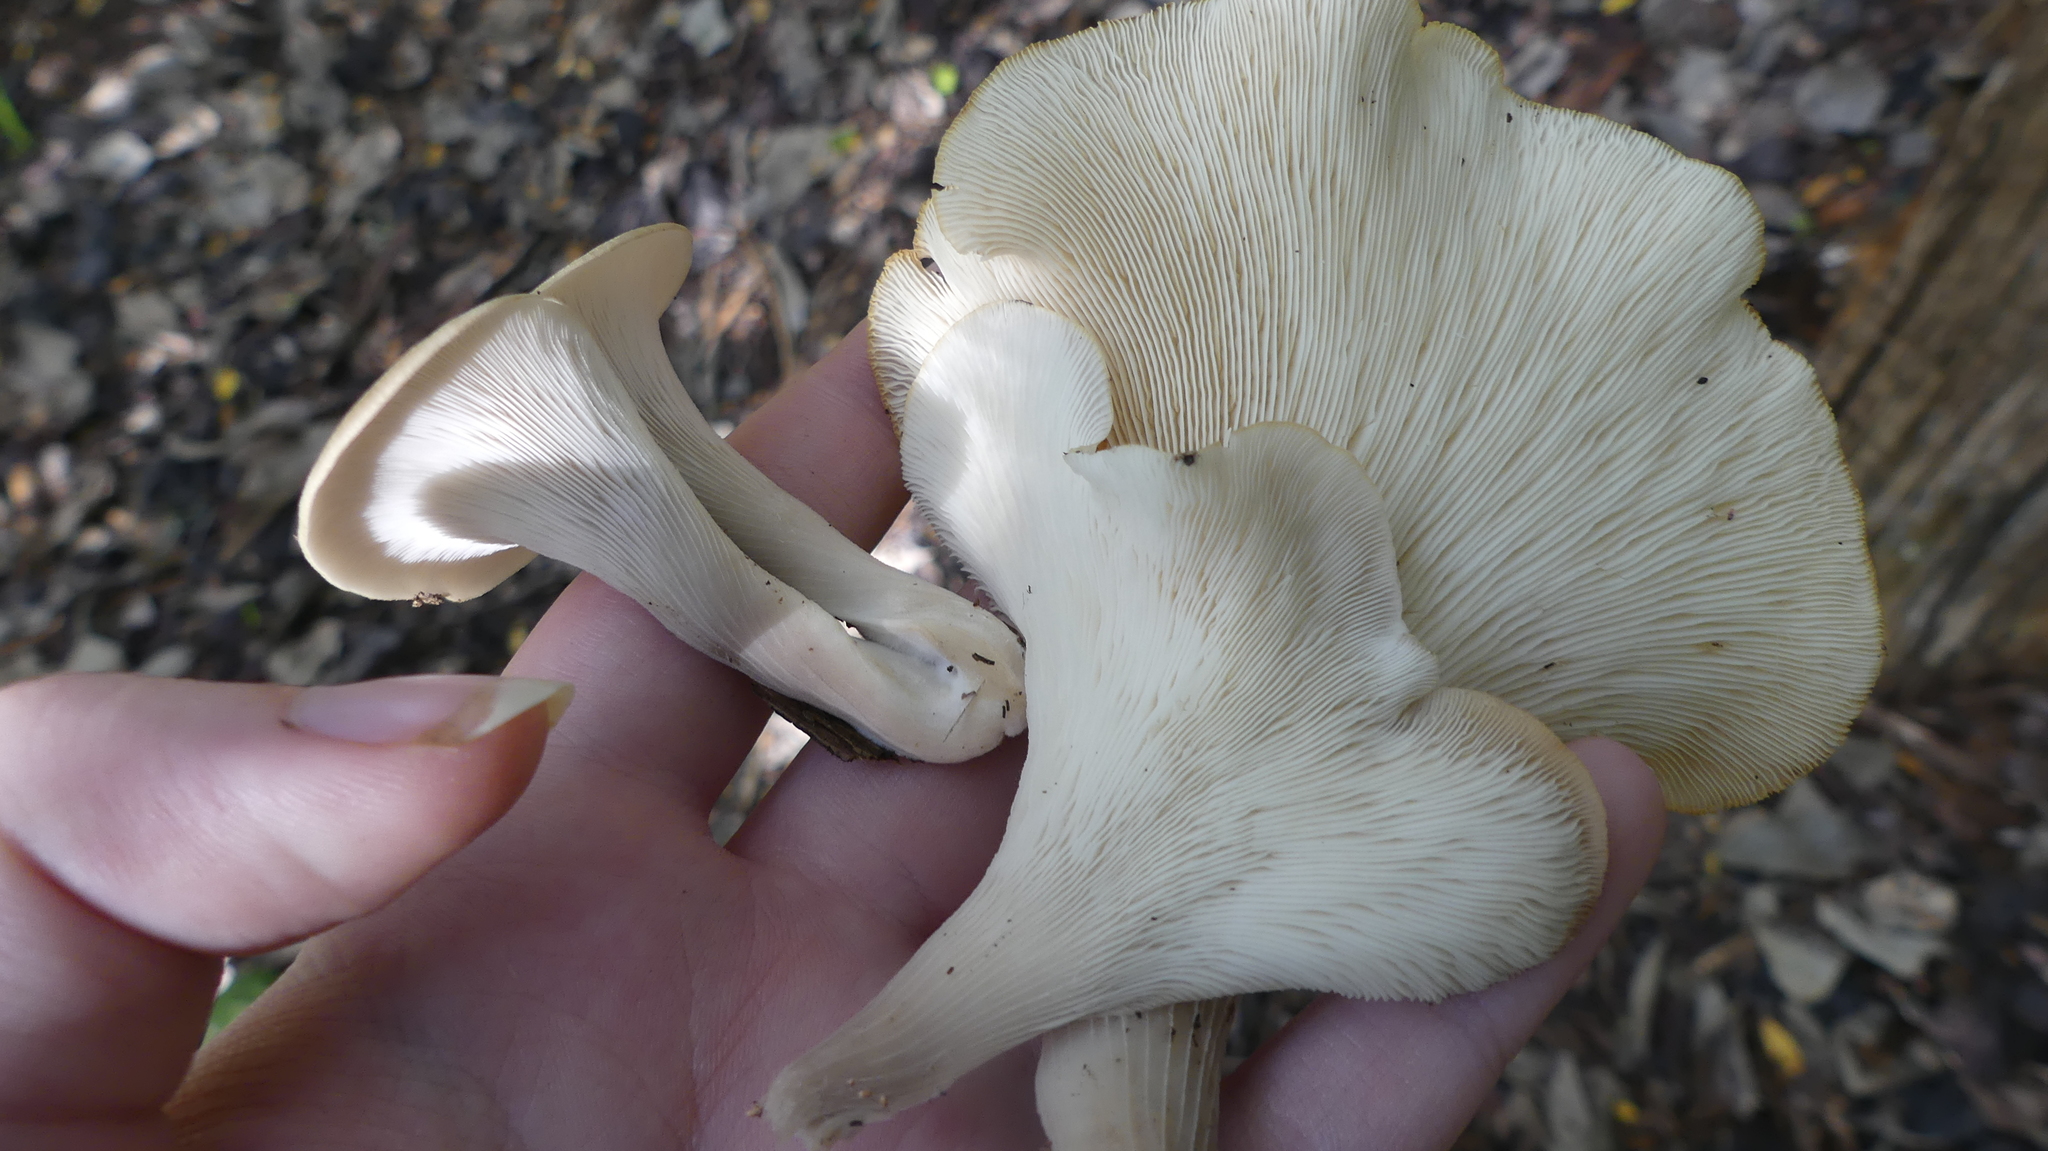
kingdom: Fungi
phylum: Basidiomycota
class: Agaricomycetes
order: Agaricales
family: Pleurotaceae
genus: Pleurotus
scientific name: Pleurotus ostreatus
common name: Oyster mushroom
